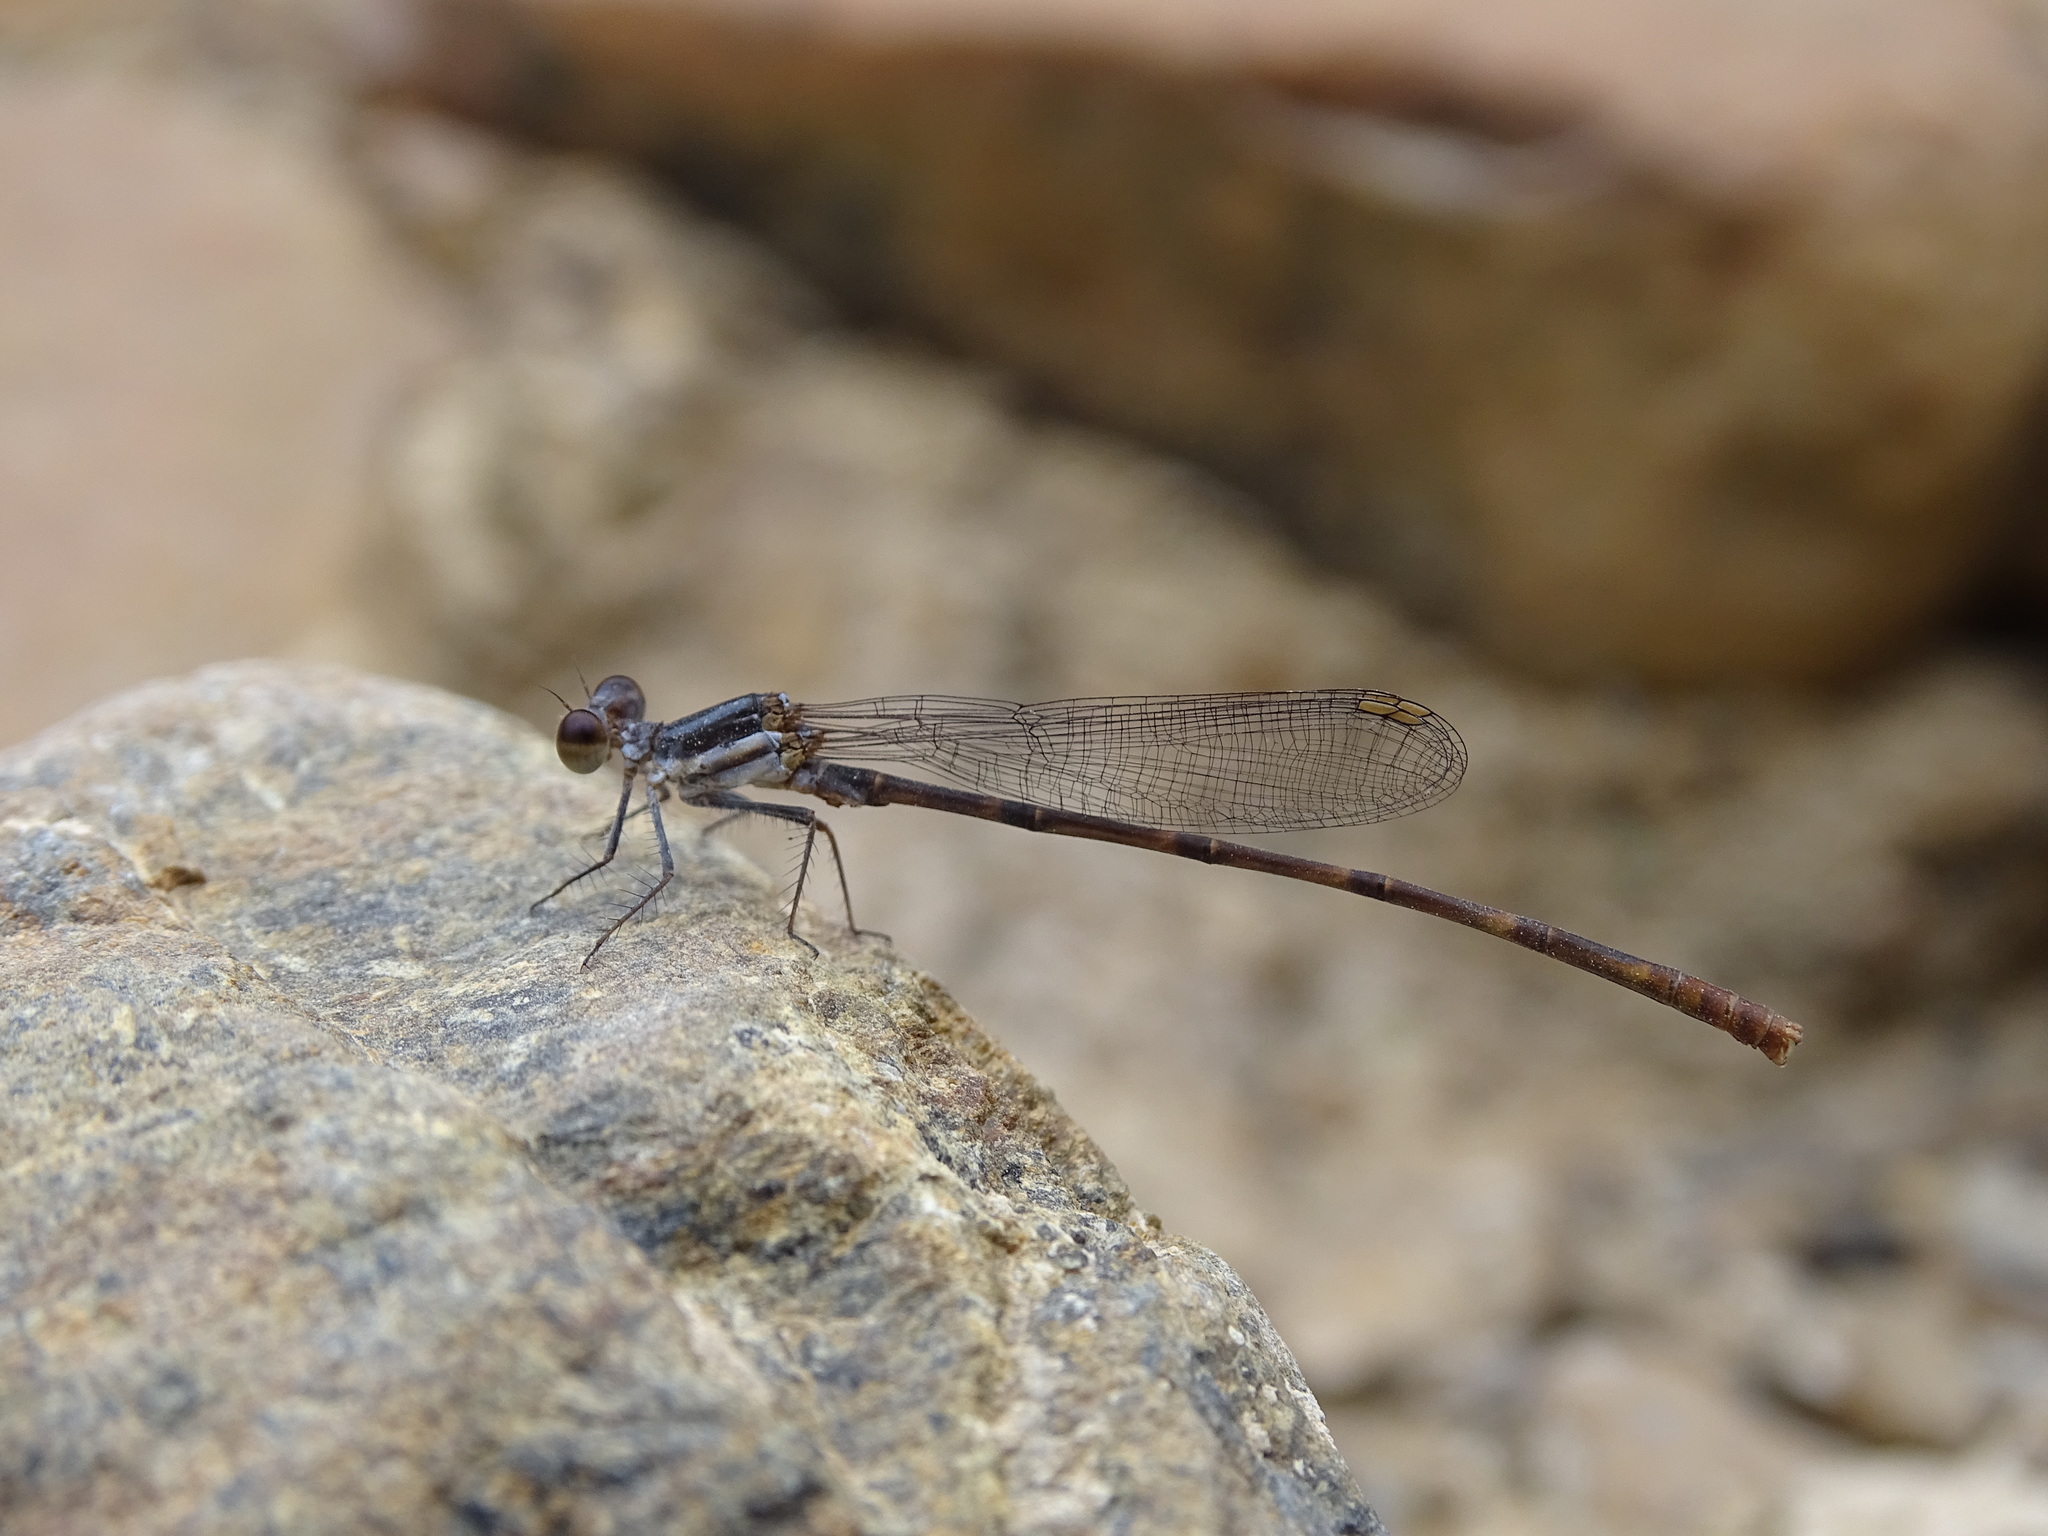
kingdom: Animalia
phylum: Arthropoda
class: Insecta
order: Odonata
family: Platycnemididae
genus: Arabineura
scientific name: Arabineura khalidi
